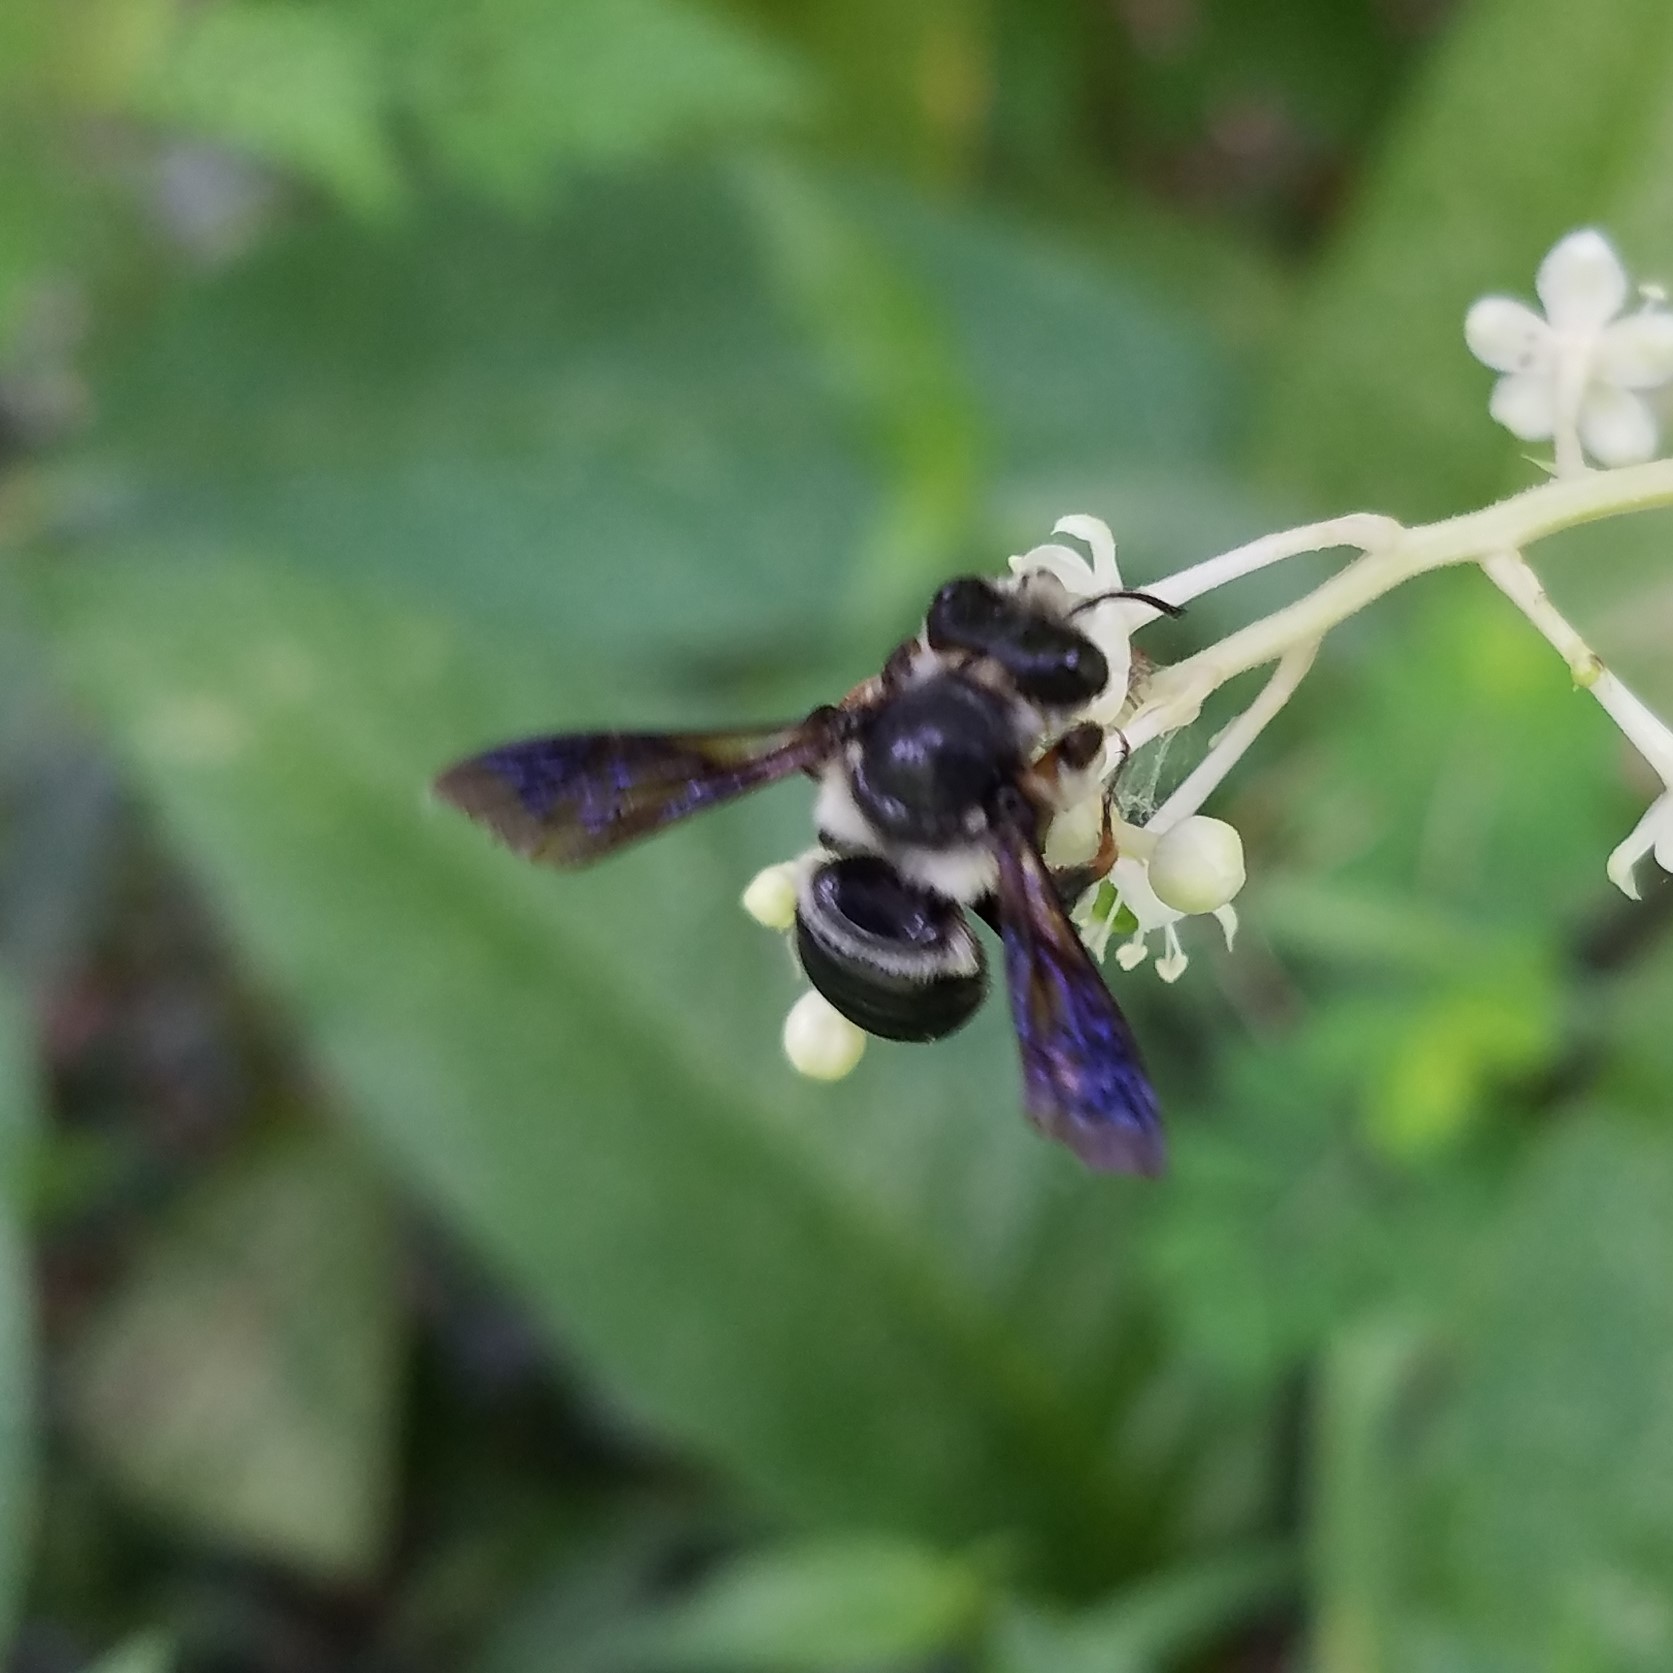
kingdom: Animalia
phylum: Arthropoda
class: Insecta
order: Hymenoptera
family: Megachilidae
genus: Megachile
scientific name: Megachile xylocopoides
